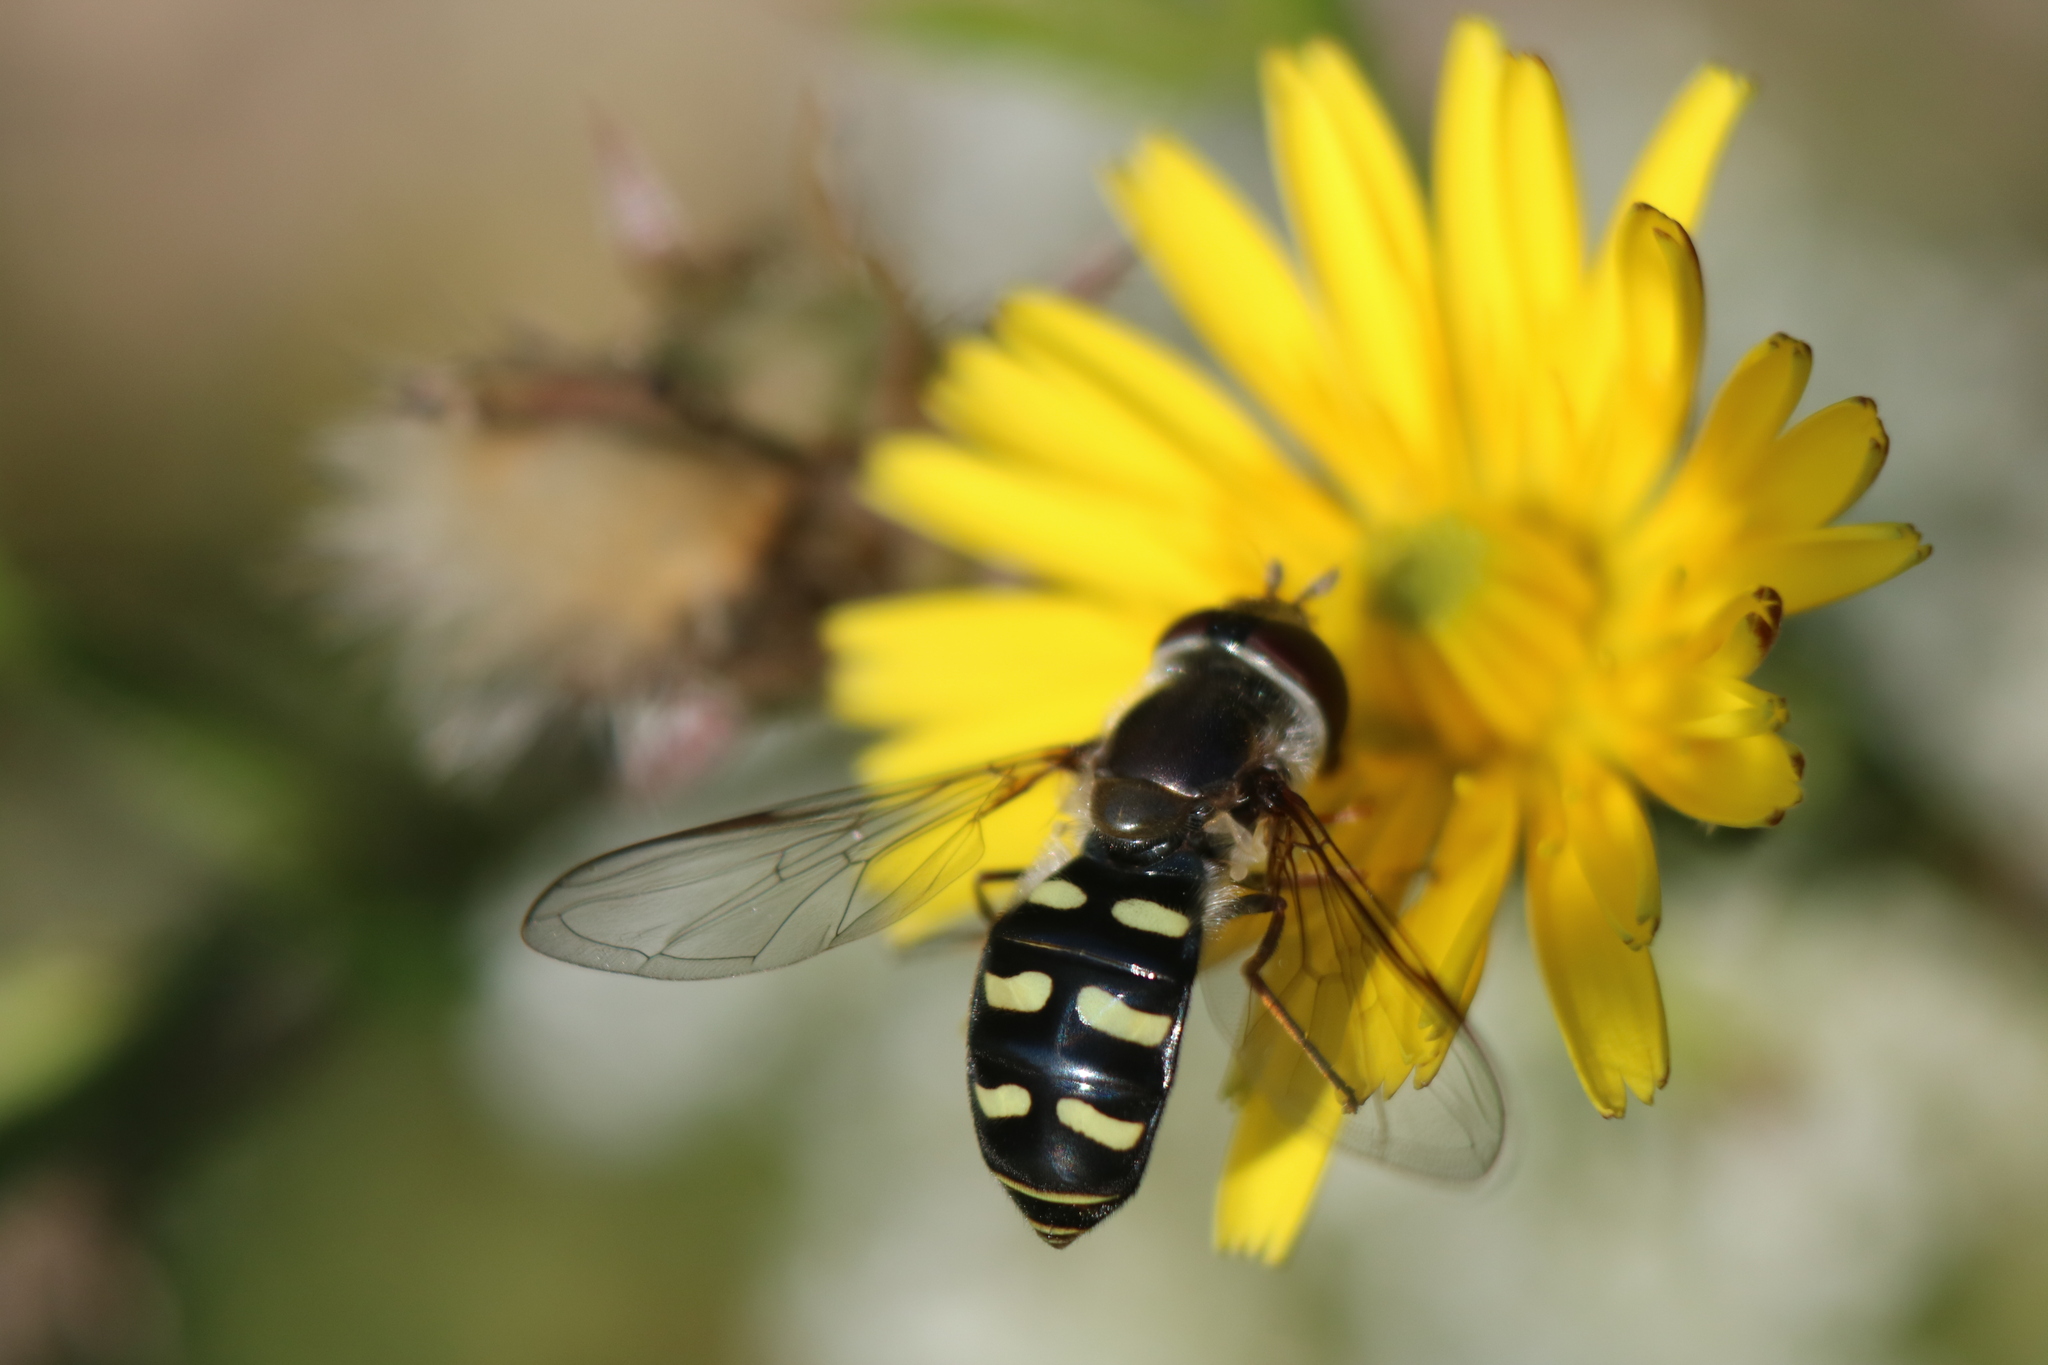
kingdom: Animalia
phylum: Arthropoda
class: Insecta
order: Diptera
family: Syrphidae
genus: Eupeodes
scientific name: Eupeodes perplexus
